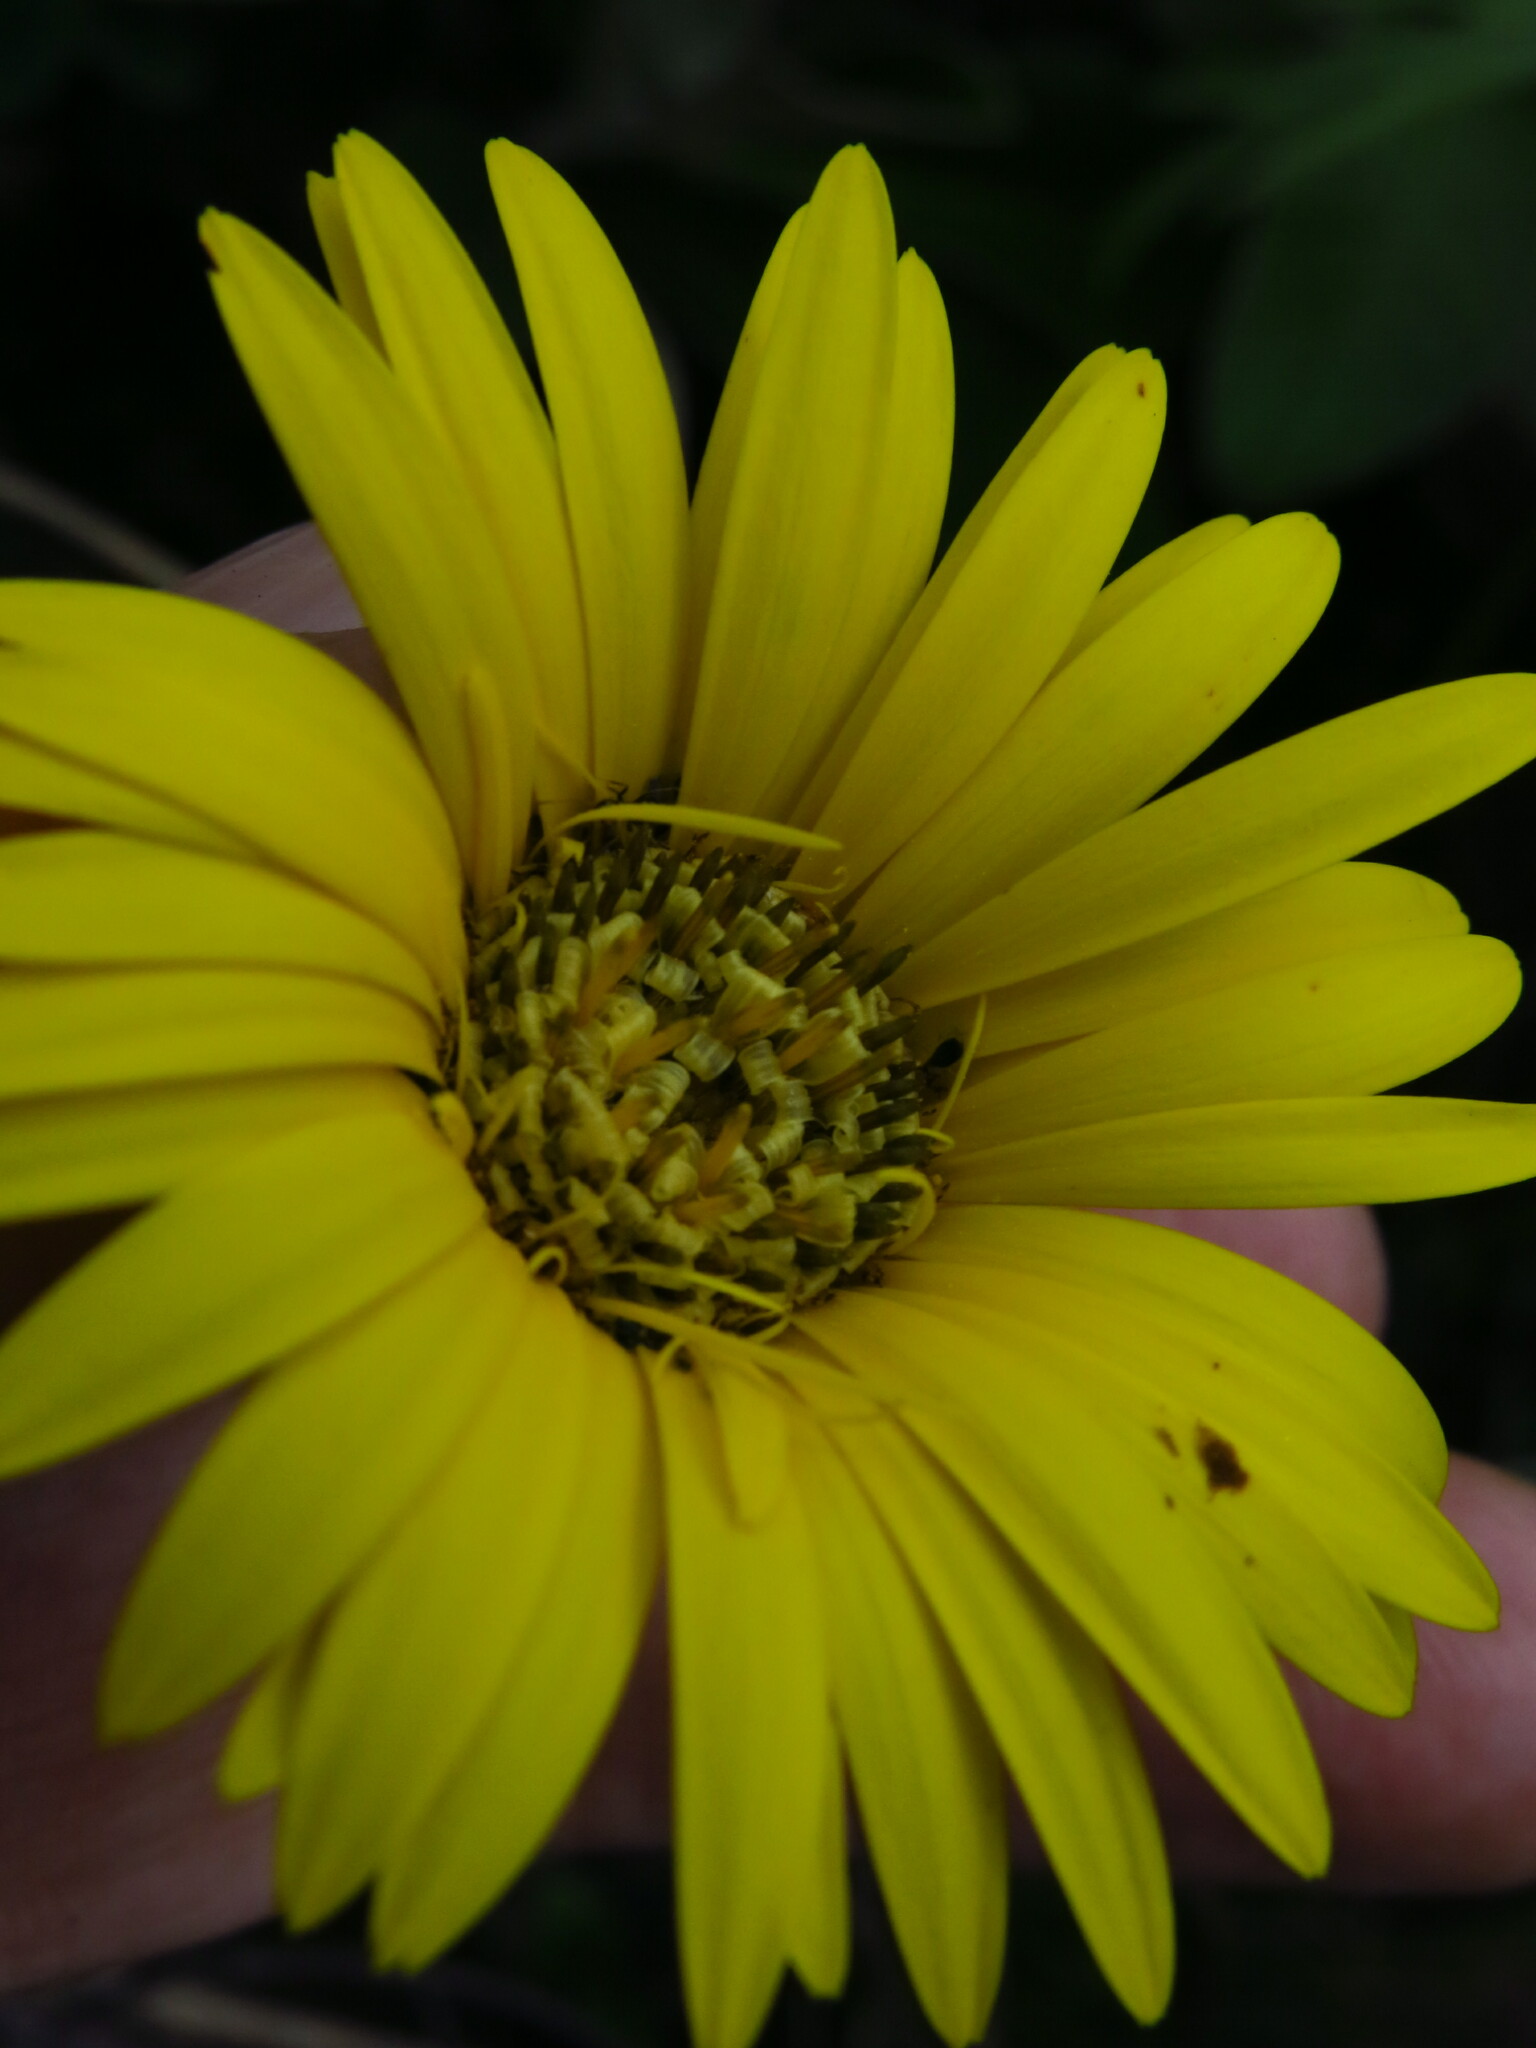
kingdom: Plantae
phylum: Tracheophyta
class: Magnoliopsida
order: Asterales
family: Asteraceae
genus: Gerbera
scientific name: Gerbera ambigua
